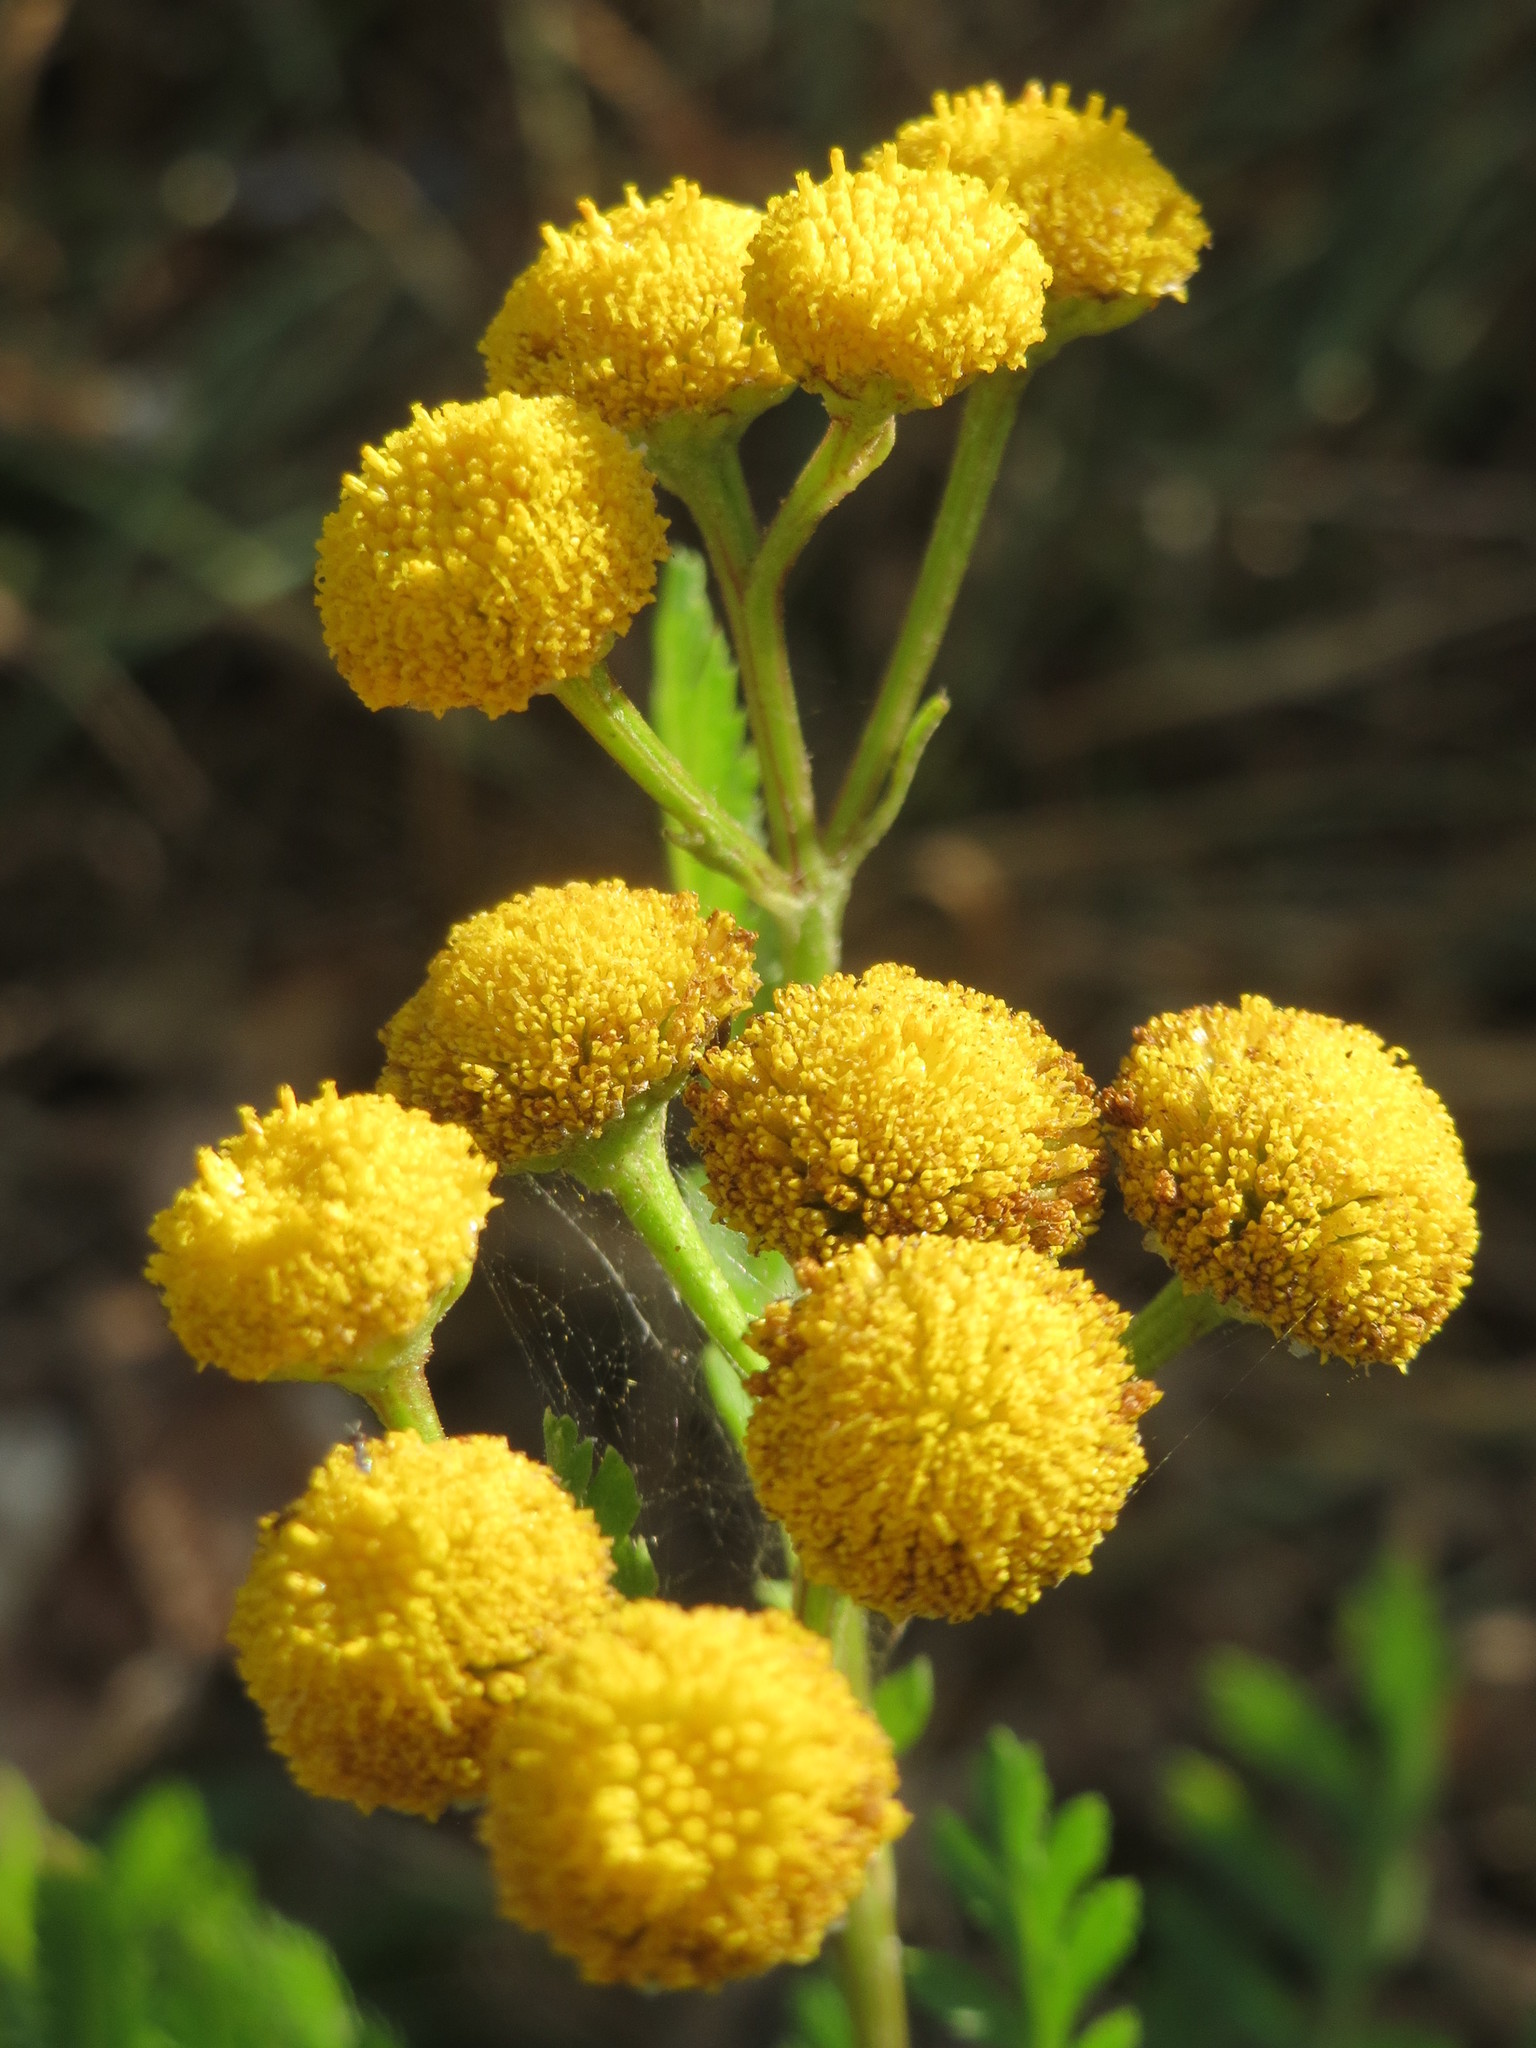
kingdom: Plantae
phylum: Tracheophyta
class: Magnoliopsida
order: Asterales
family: Asteraceae
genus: Tanacetum
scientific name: Tanacetum vulgare
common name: Common tansy
